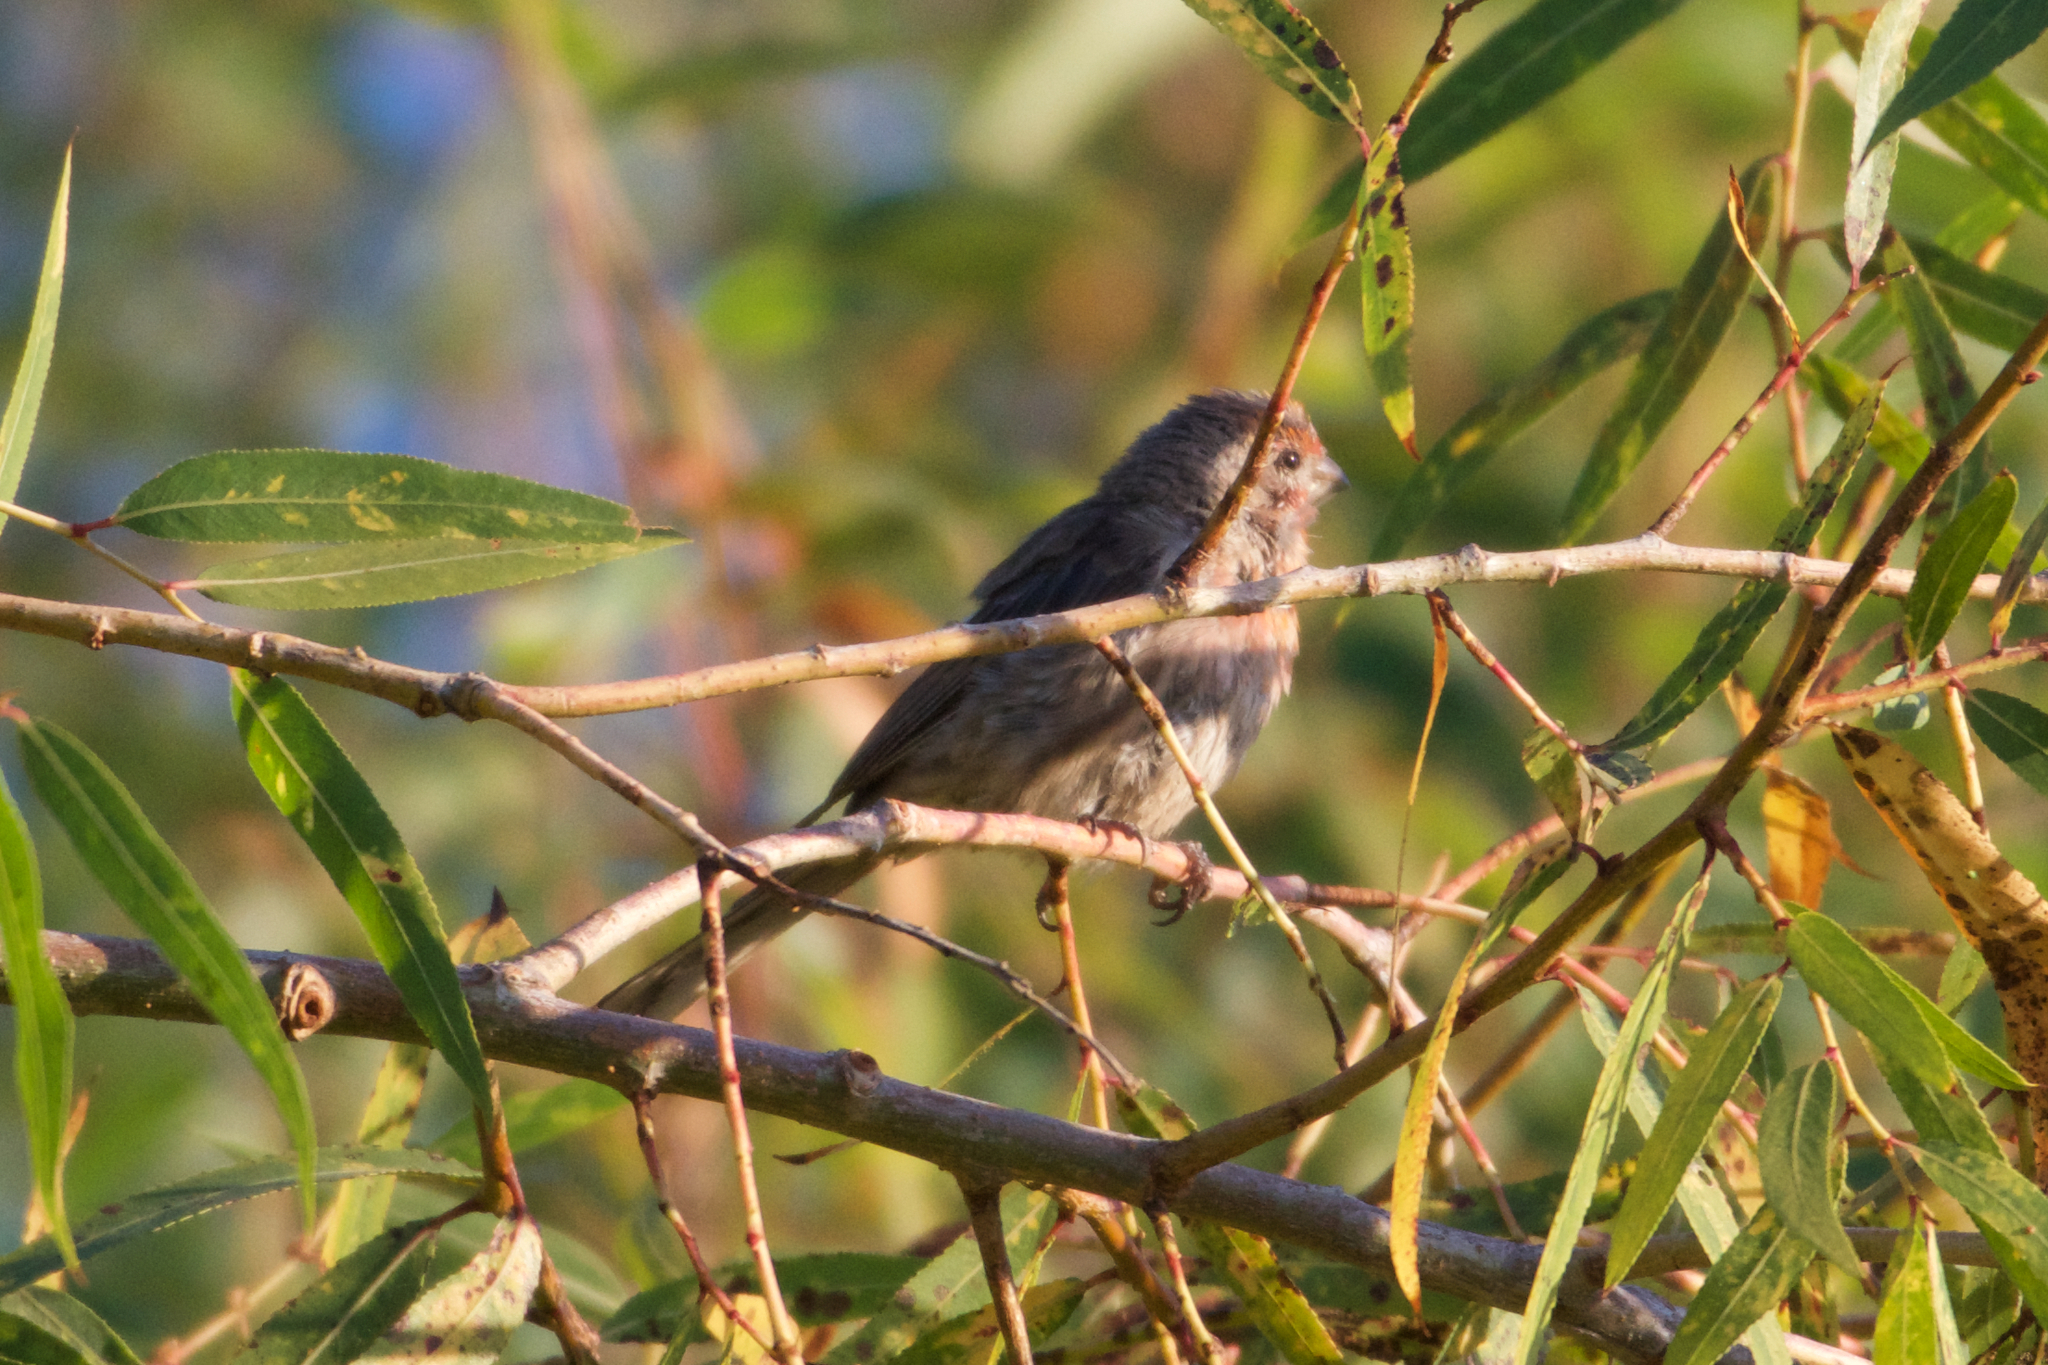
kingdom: Animalia
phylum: Chordata
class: Aves
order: Passeriformes
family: Fringillidae
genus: Haemorhous
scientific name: Haemorhous mexicanus
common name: House finch
